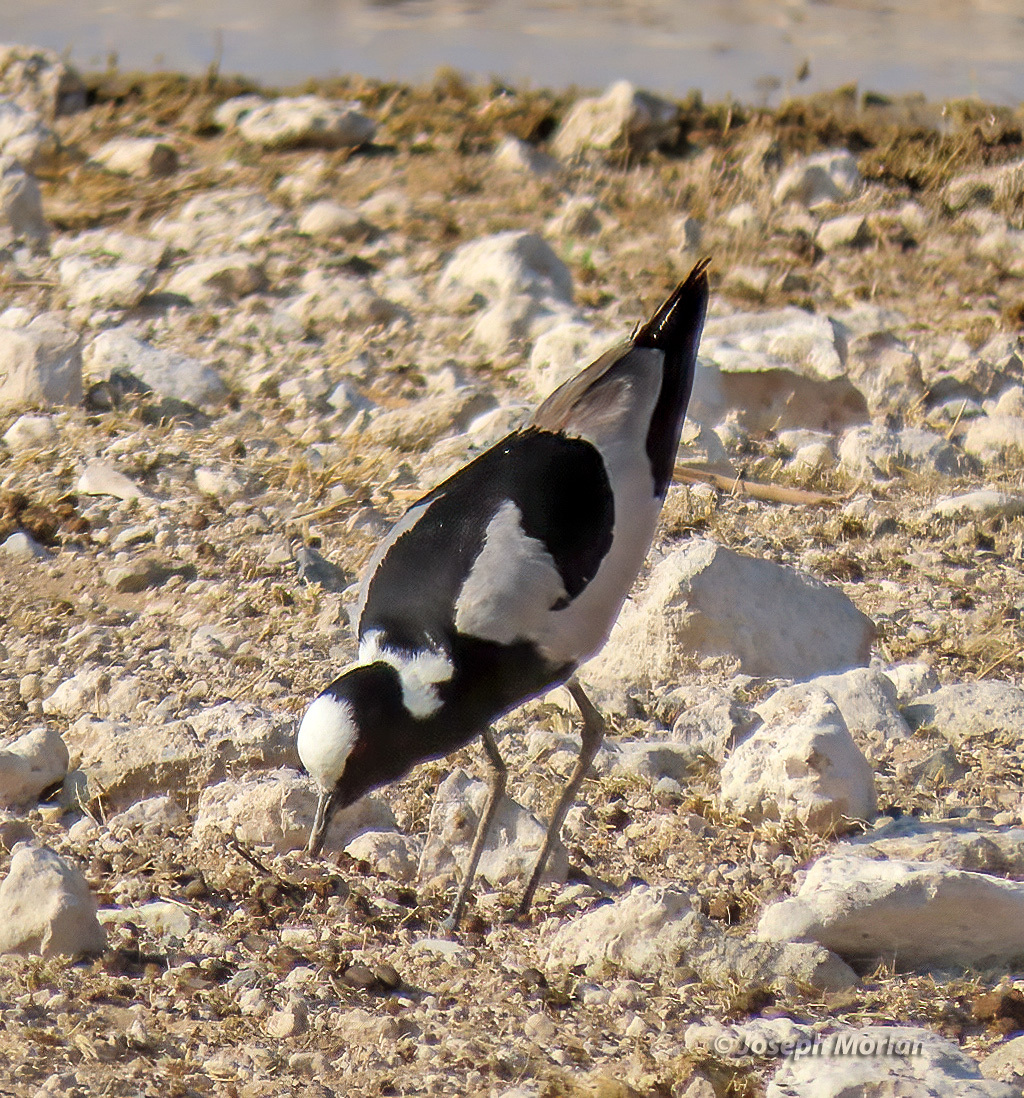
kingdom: Animalia
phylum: Chordata
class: Aves
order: Charadriiformes
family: Charadriidae
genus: Vanellus
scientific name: Vanellus armatus
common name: Blacksmith lapwing
